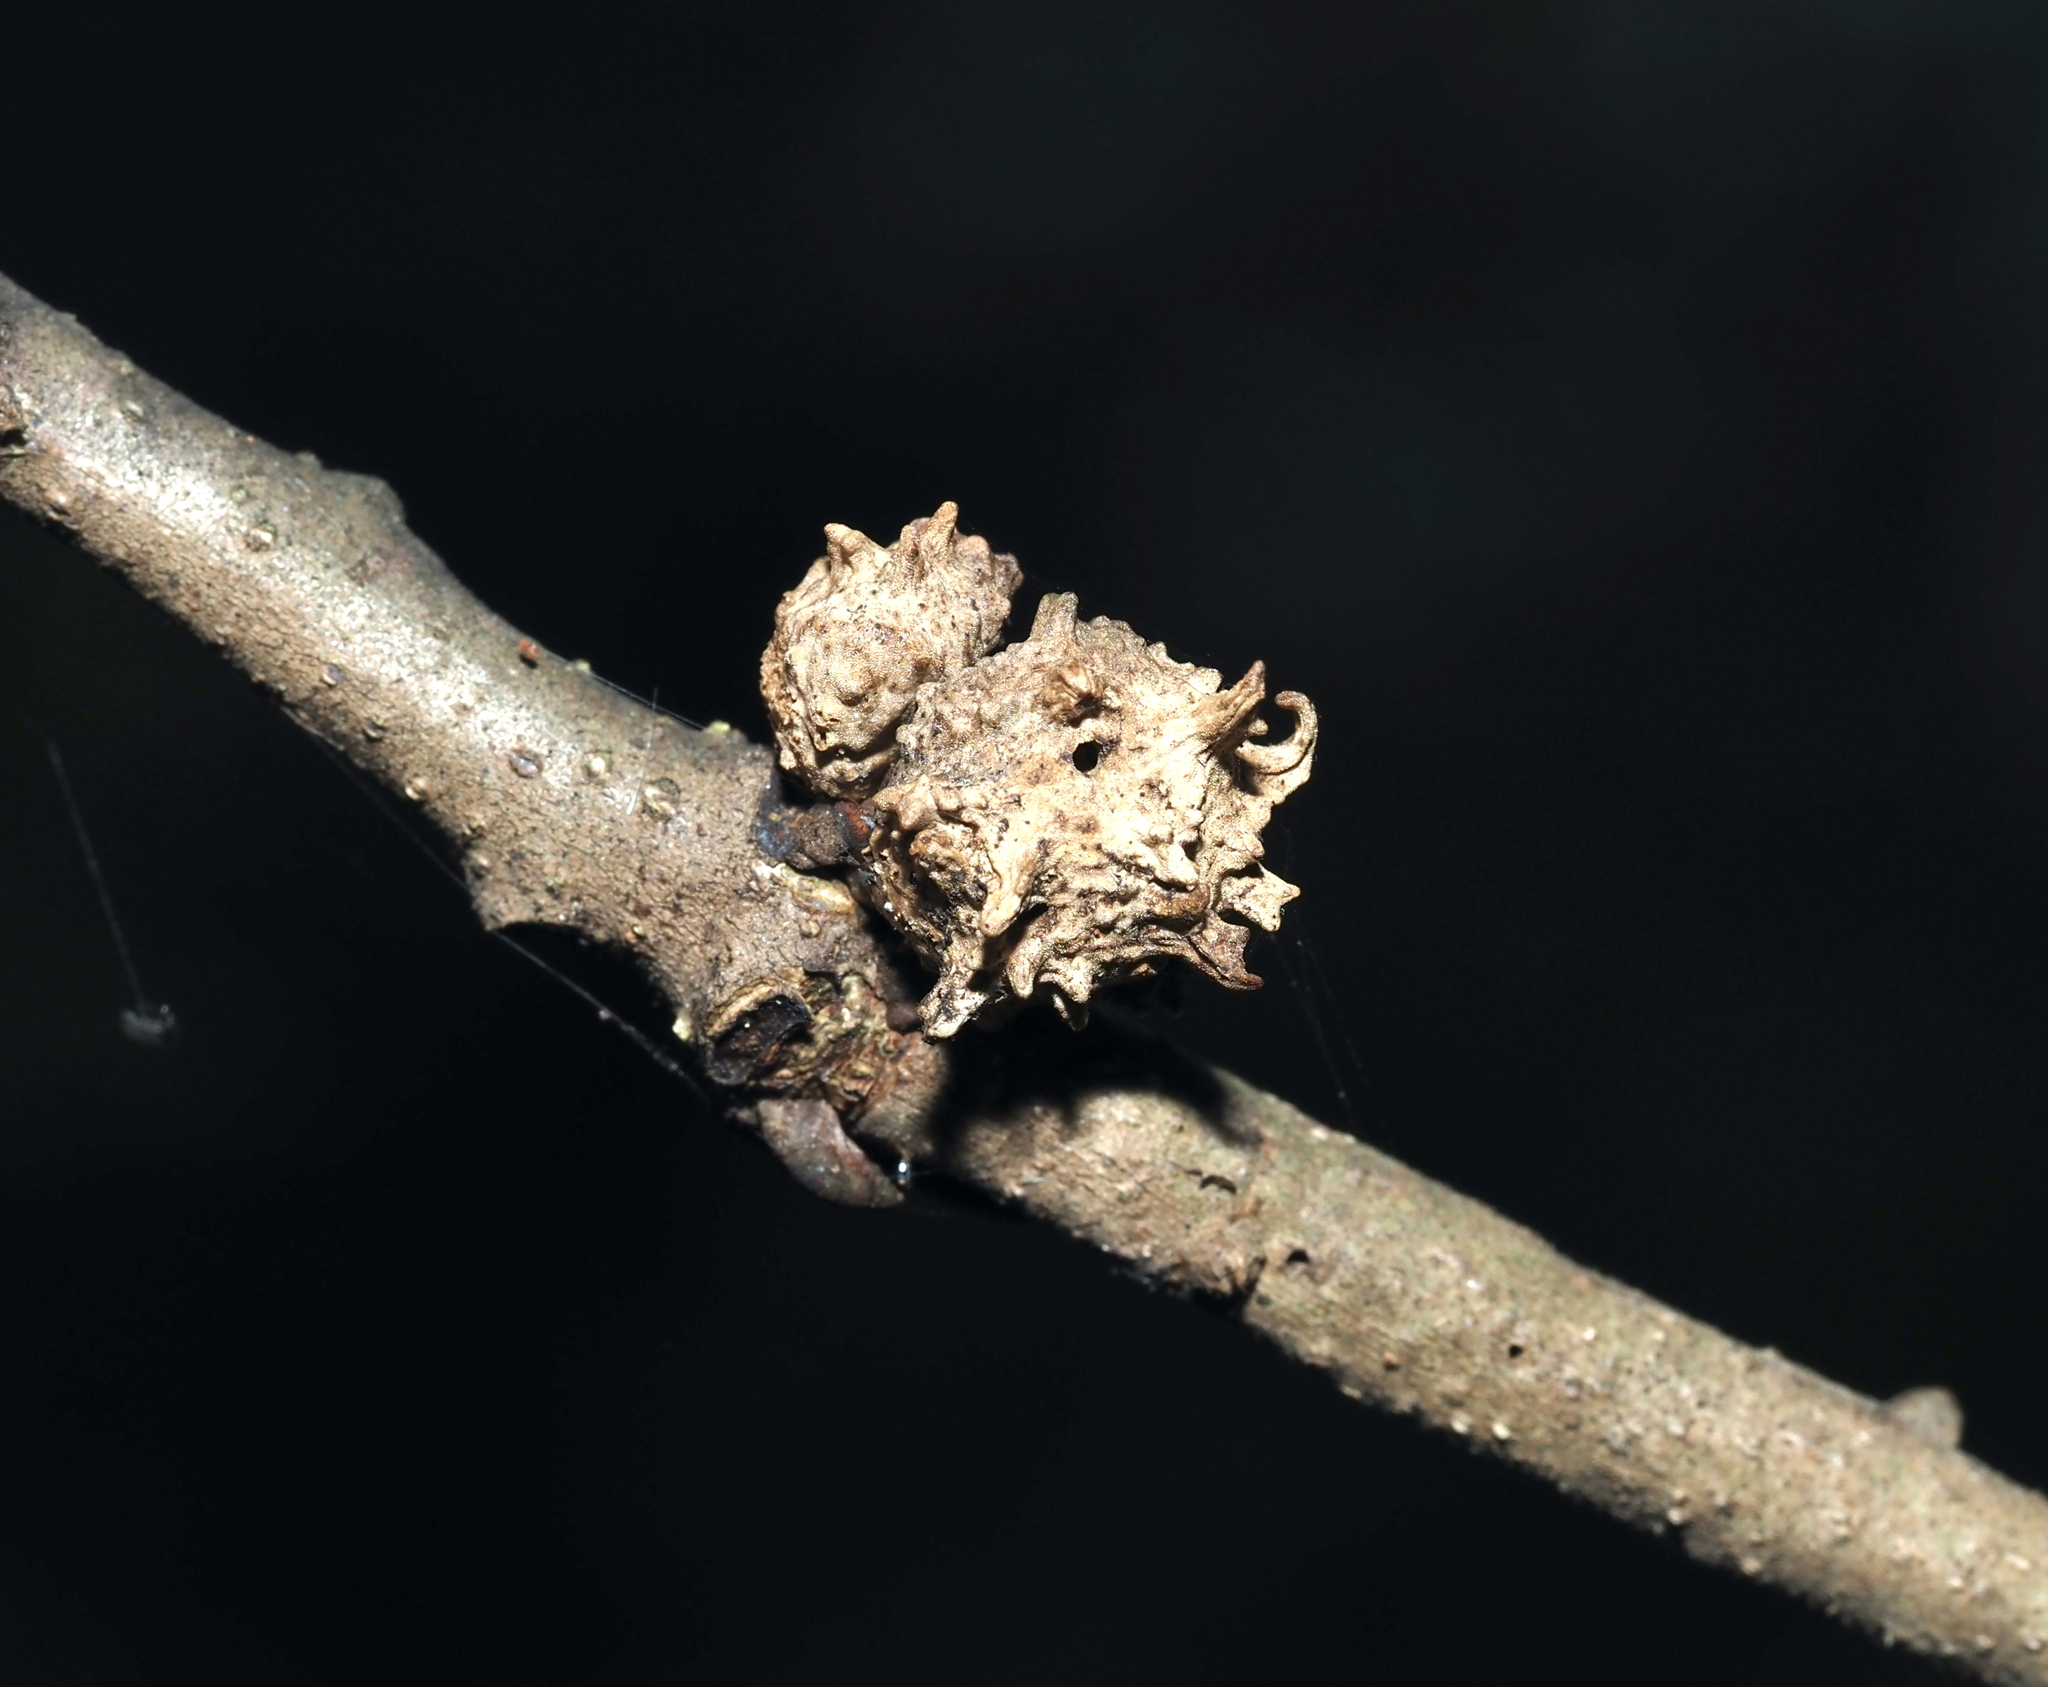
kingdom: Animalia
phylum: Arthropoda
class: Insecta
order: Hymenoptera
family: Cynipidae
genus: Andricus
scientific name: Andricus
